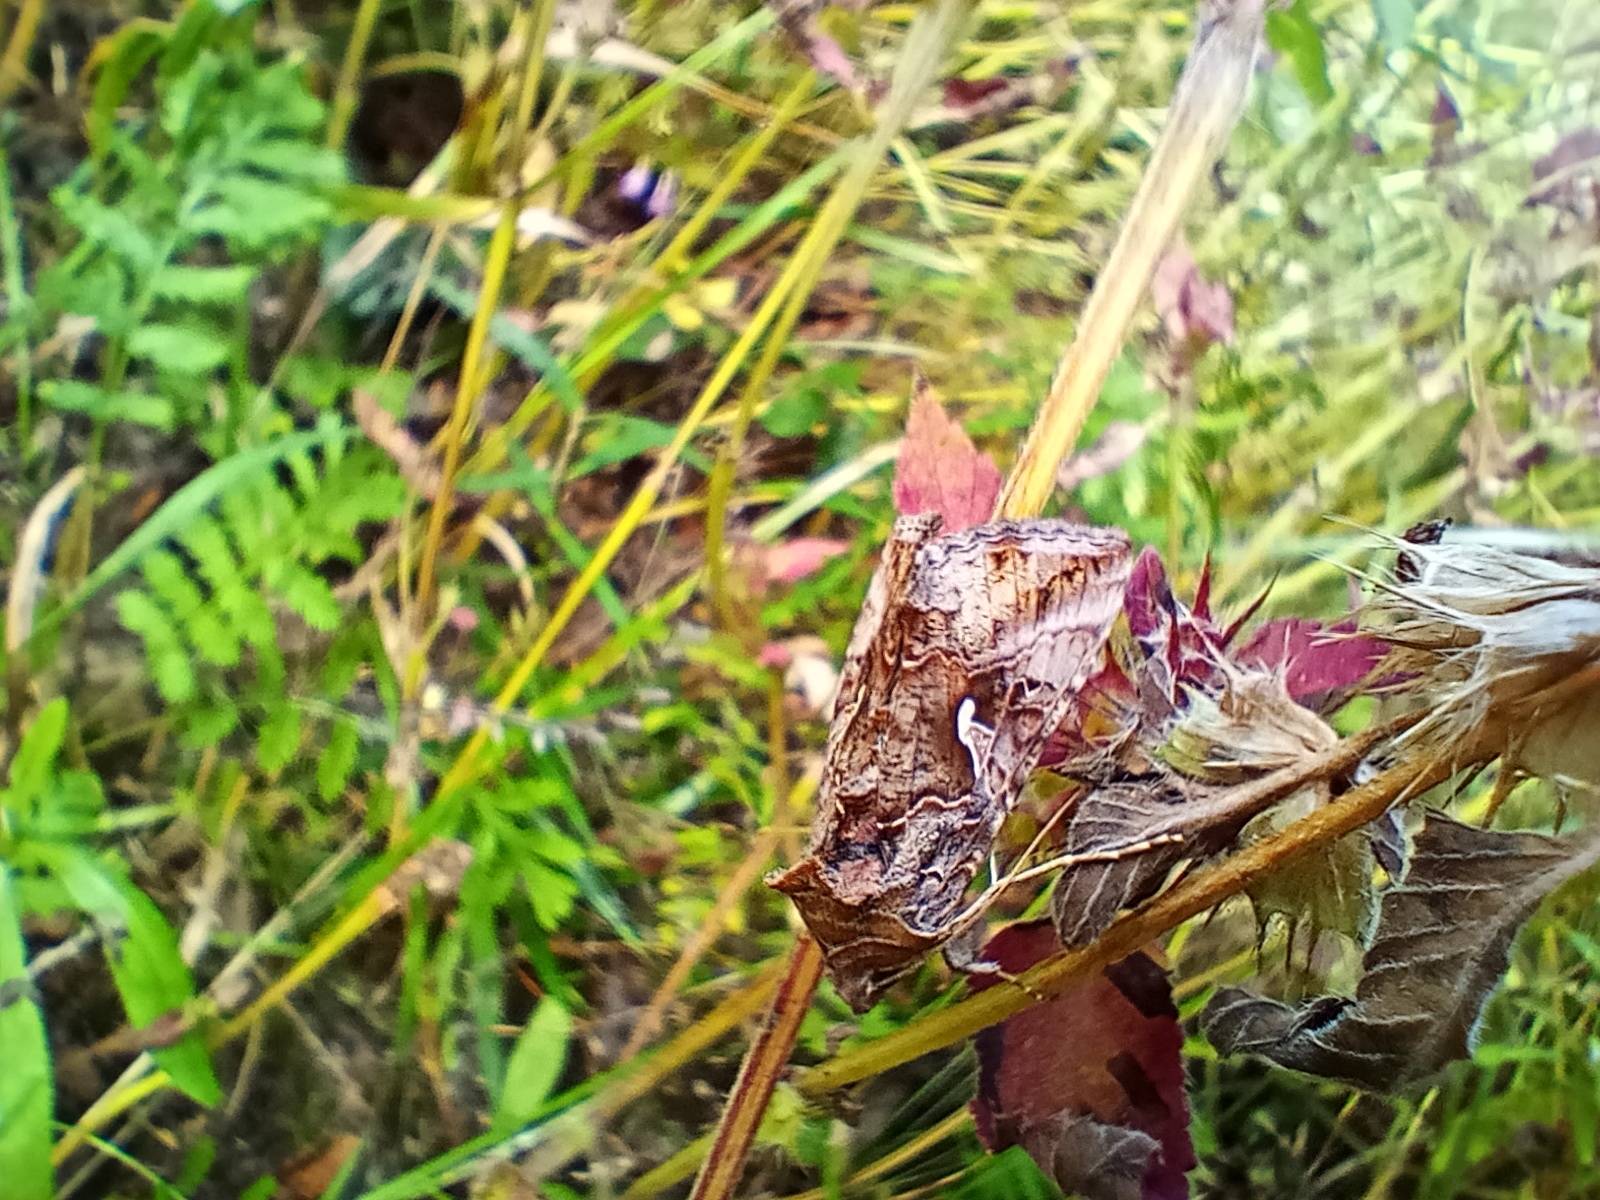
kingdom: Animalia
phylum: Arthropoda
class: Insecta
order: Lepidoptera
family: Noctuidae
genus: Autographa
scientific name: Autographa gamma
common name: Silver y
